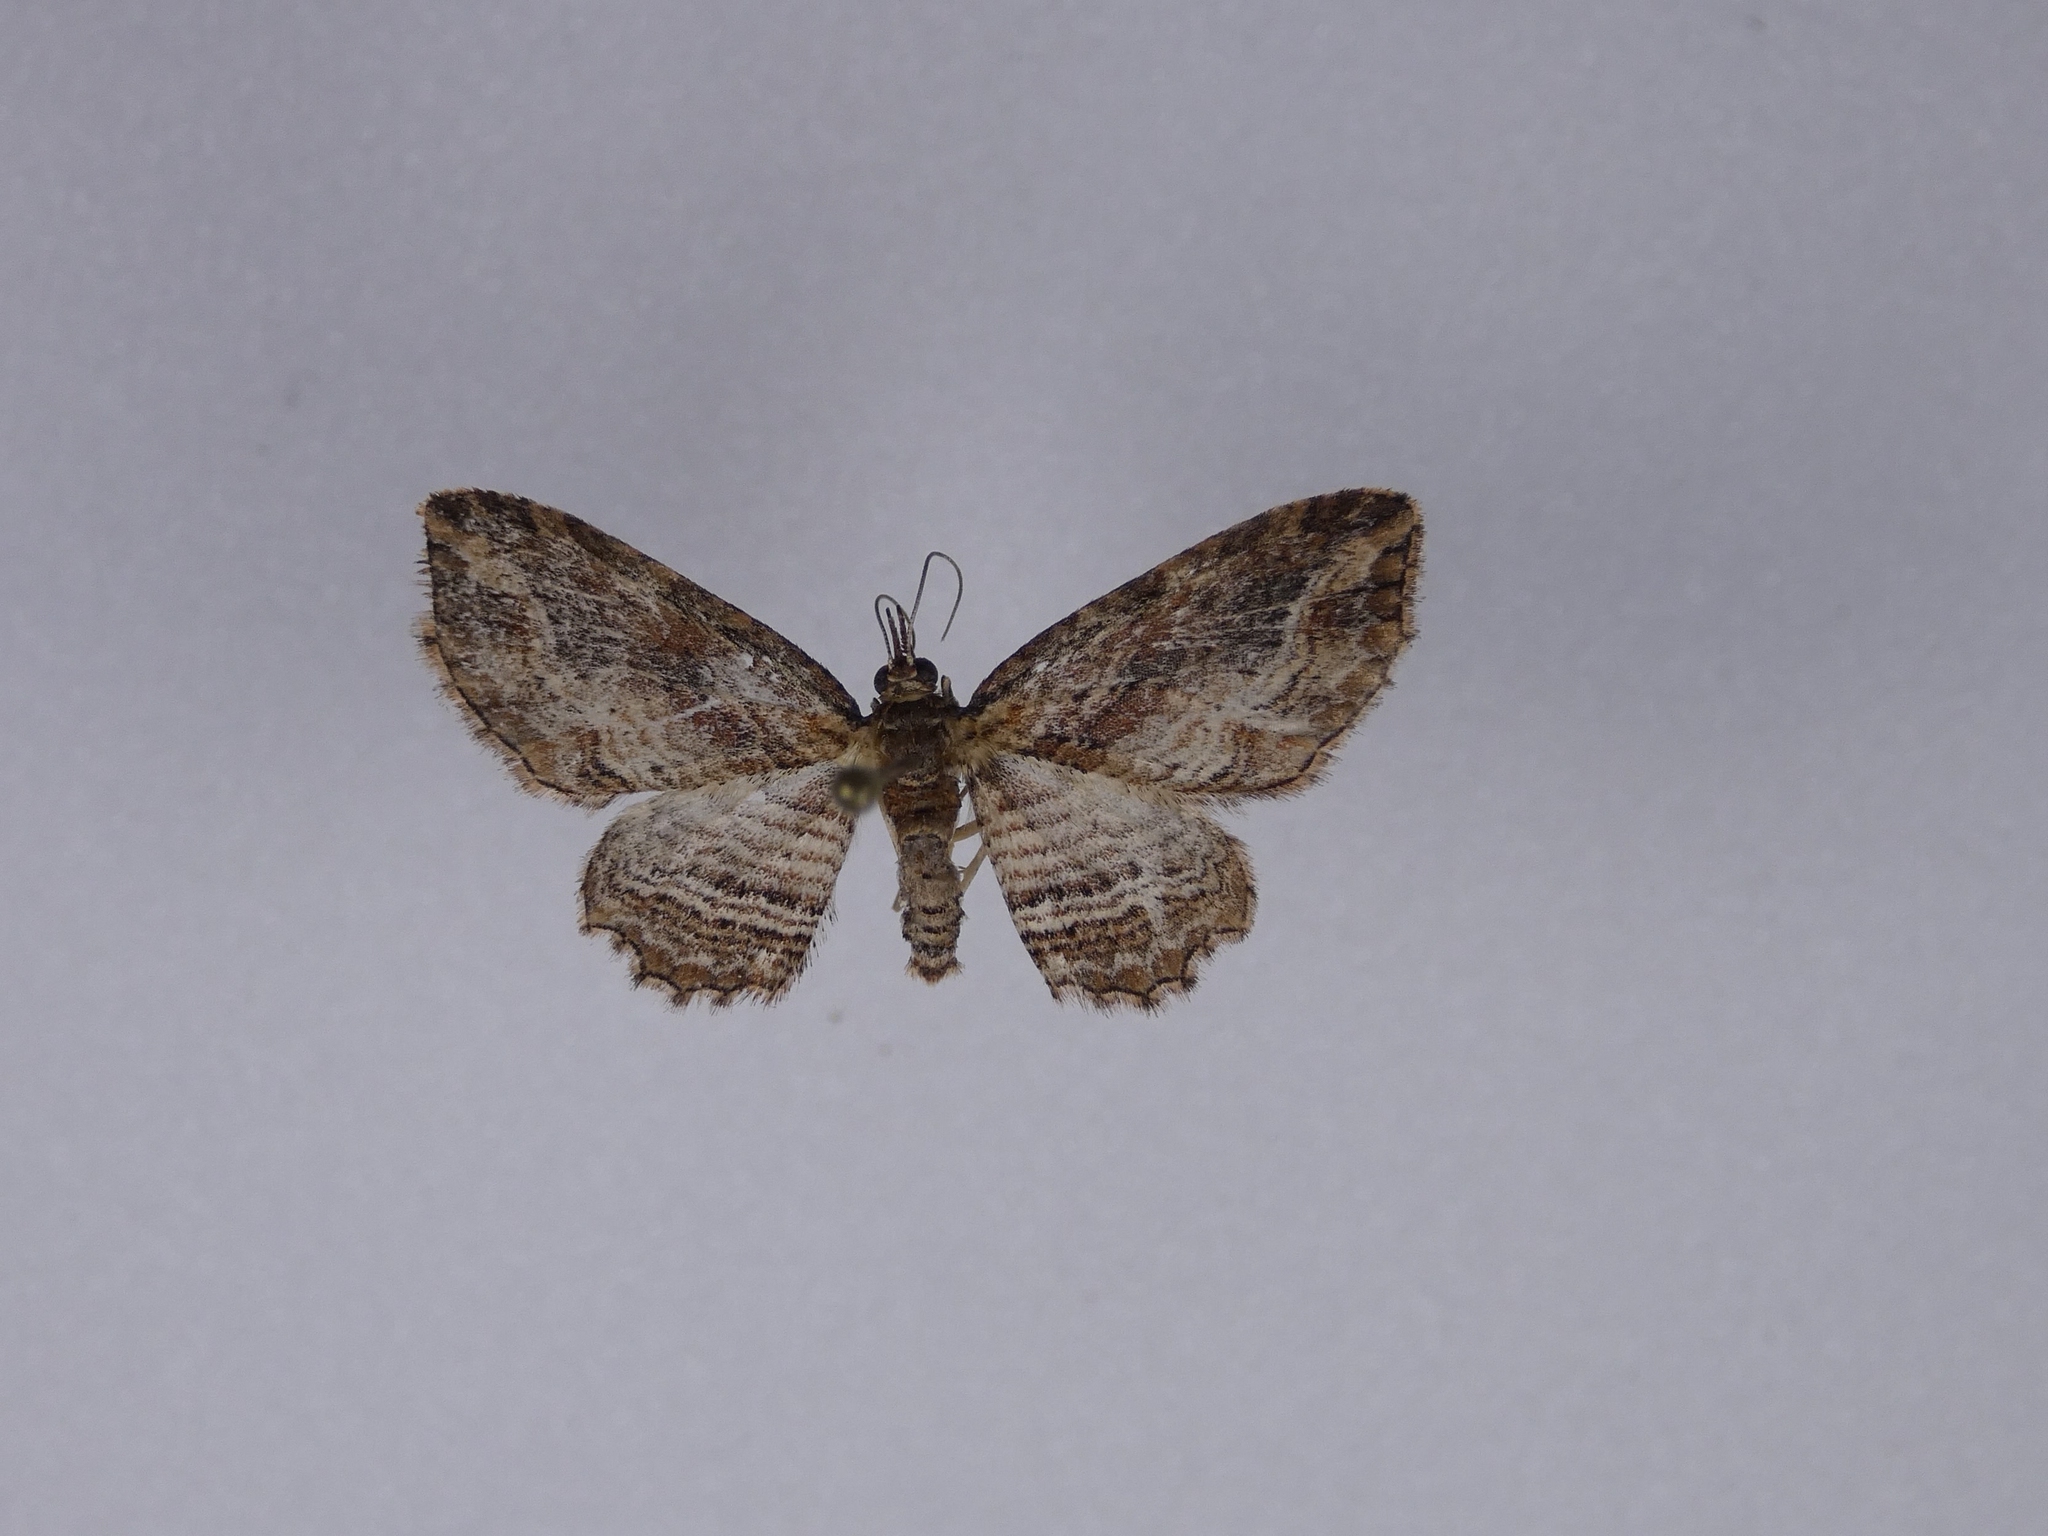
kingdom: Animalia
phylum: Arthropoda
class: Insecta
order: Lepidoptera
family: Geometridae
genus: Chloroclystis
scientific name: Chloroclystis filata
